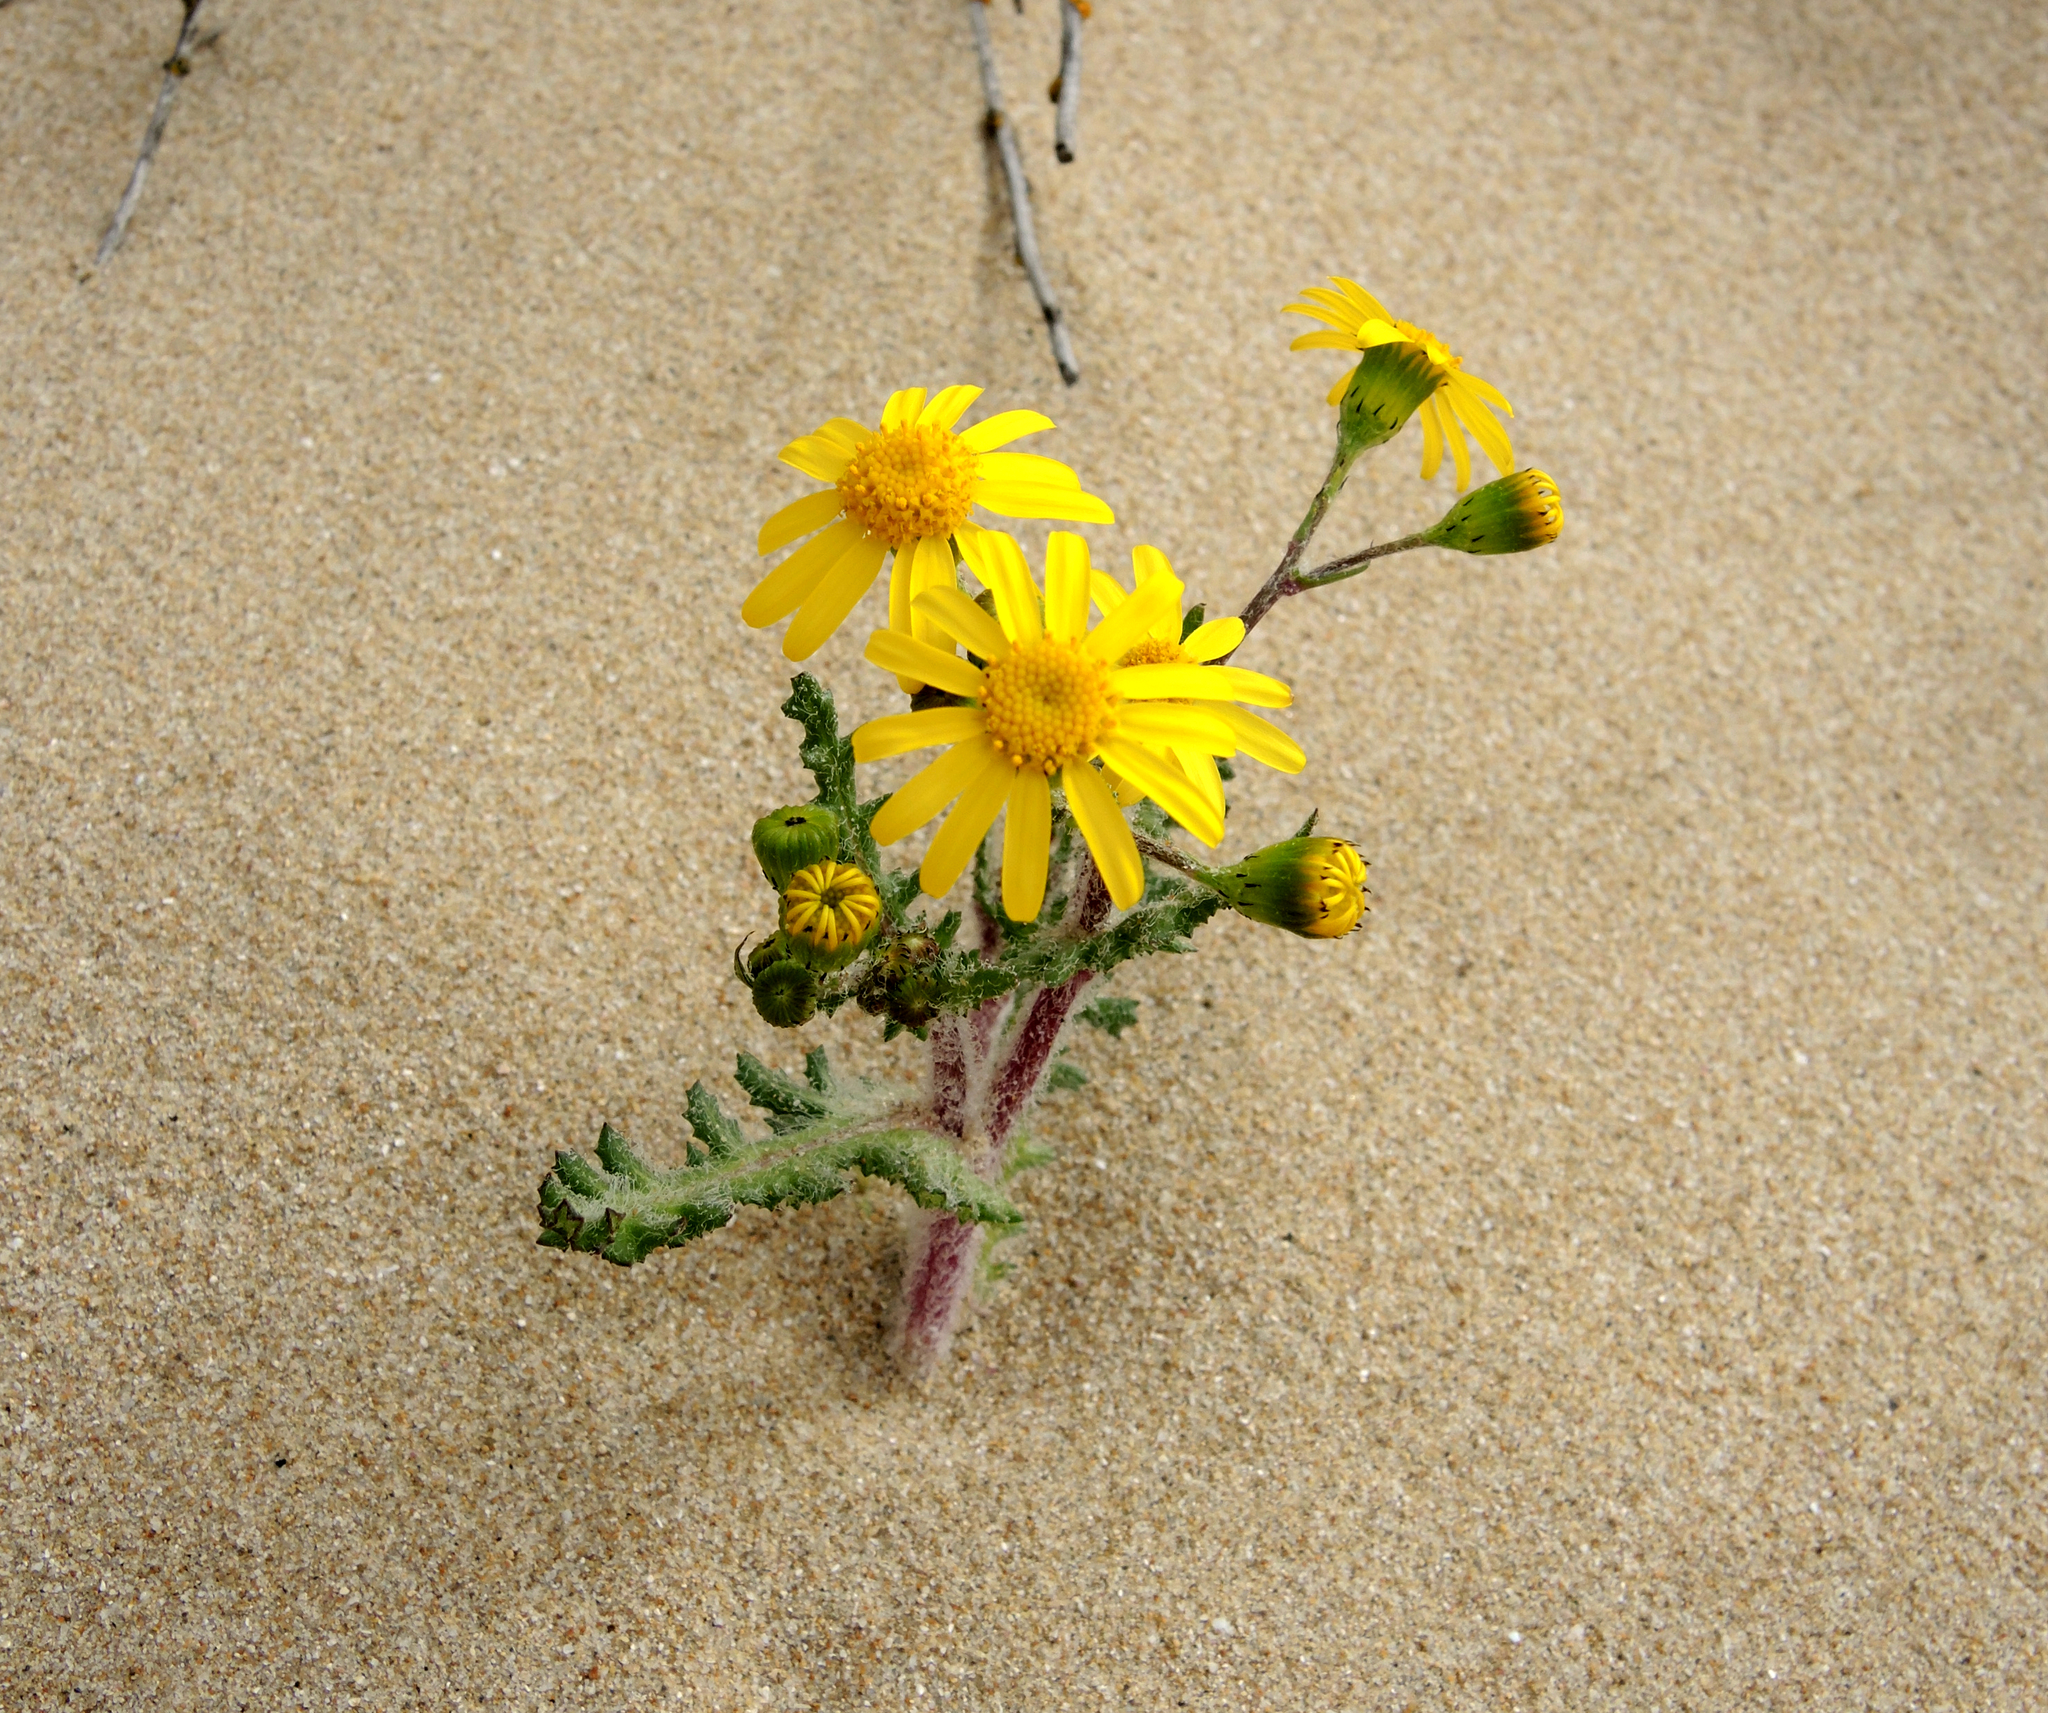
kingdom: Plantae
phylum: Tracheophyta
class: Magnoliopsida
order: Asterales
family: Asteraceae
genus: Senecio
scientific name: Senecio vernalis
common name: Eastern groundsel
